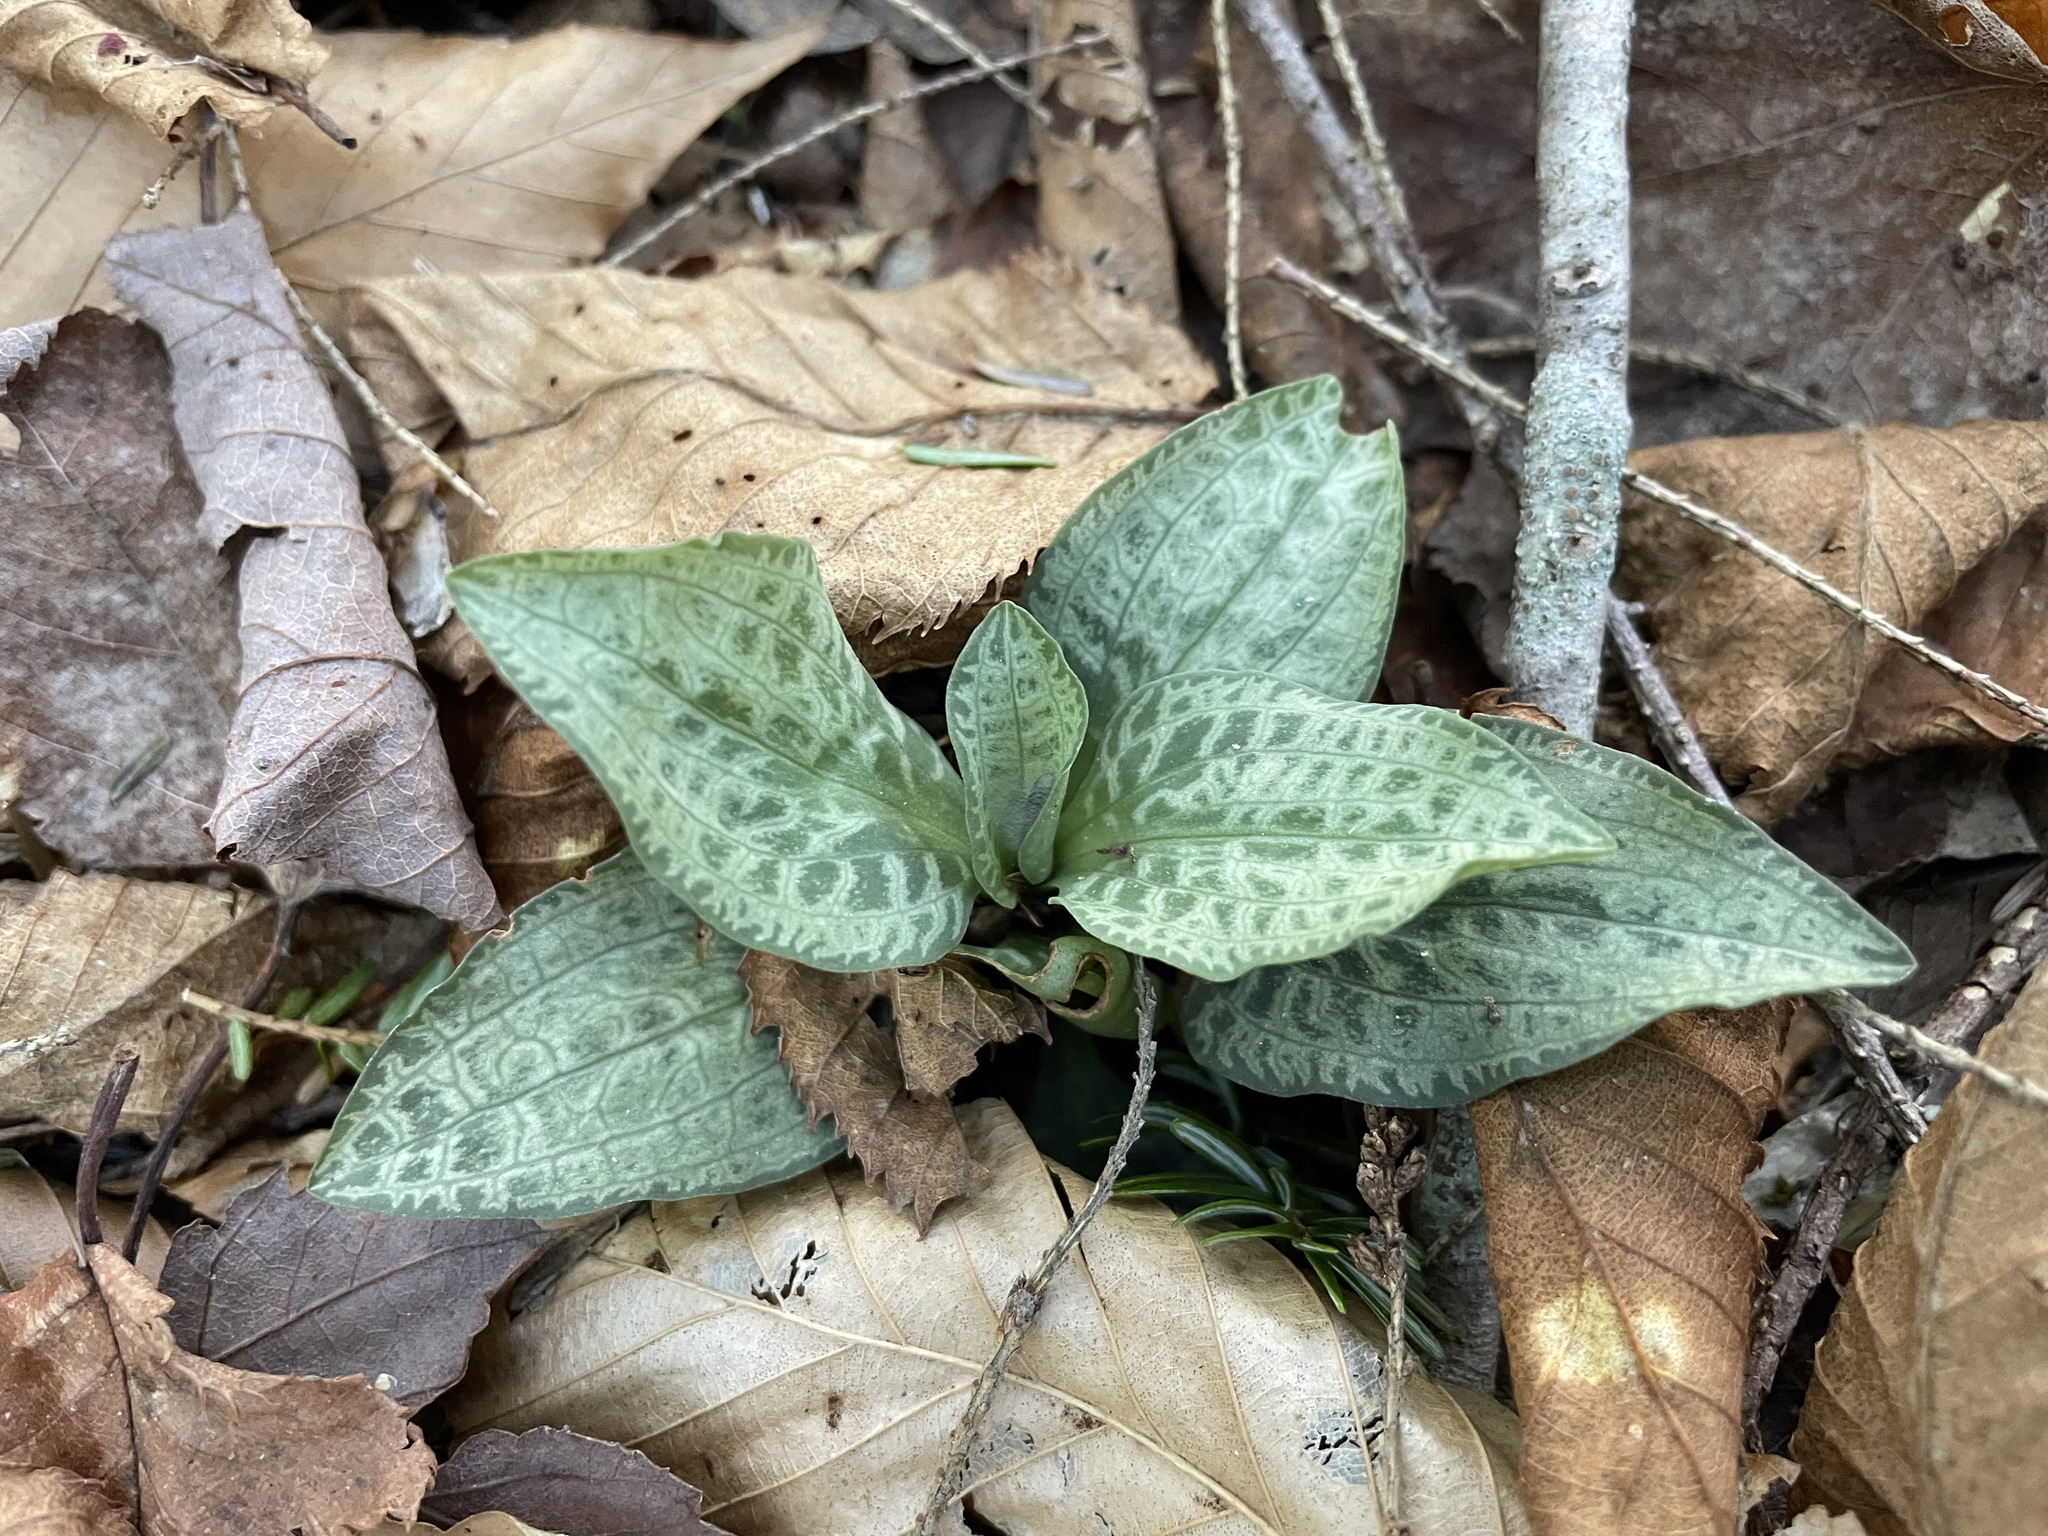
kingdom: Plantae
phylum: Tracheophyta
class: Liliopsida
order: Asparagales
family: Orchidaceae
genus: Goodyera
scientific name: Goodyera tesselata
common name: Checkered rattlesnake-plantain
